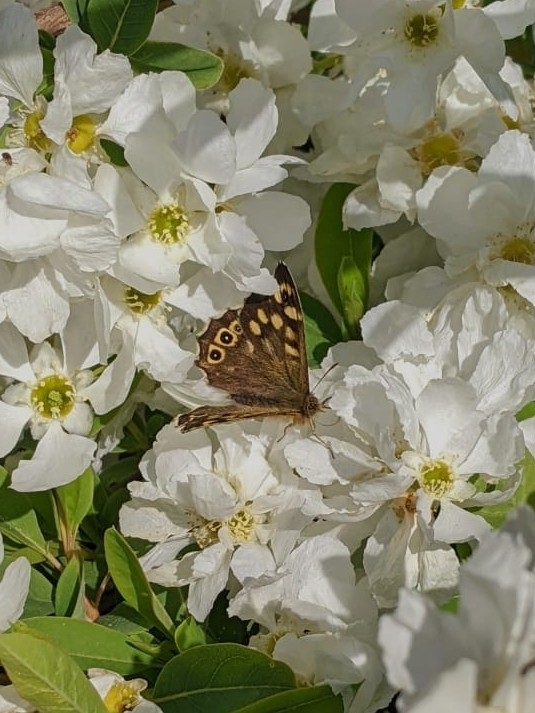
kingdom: Animalia
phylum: Arthropoda
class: Insecta
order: Lepidoptera
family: Nymphalidae
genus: Pararge
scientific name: Pararge aegeria
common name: Speckled wood
